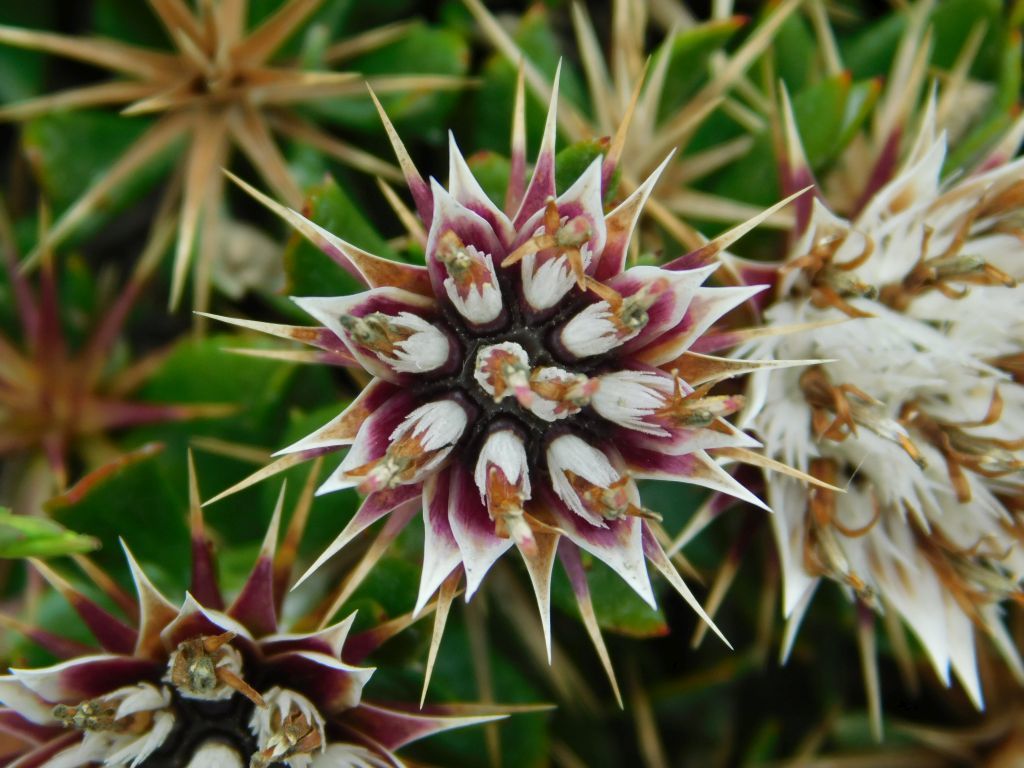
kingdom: Plantae
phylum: Tracheophyta
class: Magnoliopsida
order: Asterales
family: Asteraceae
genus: Macledium
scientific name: Macledium spinosum
